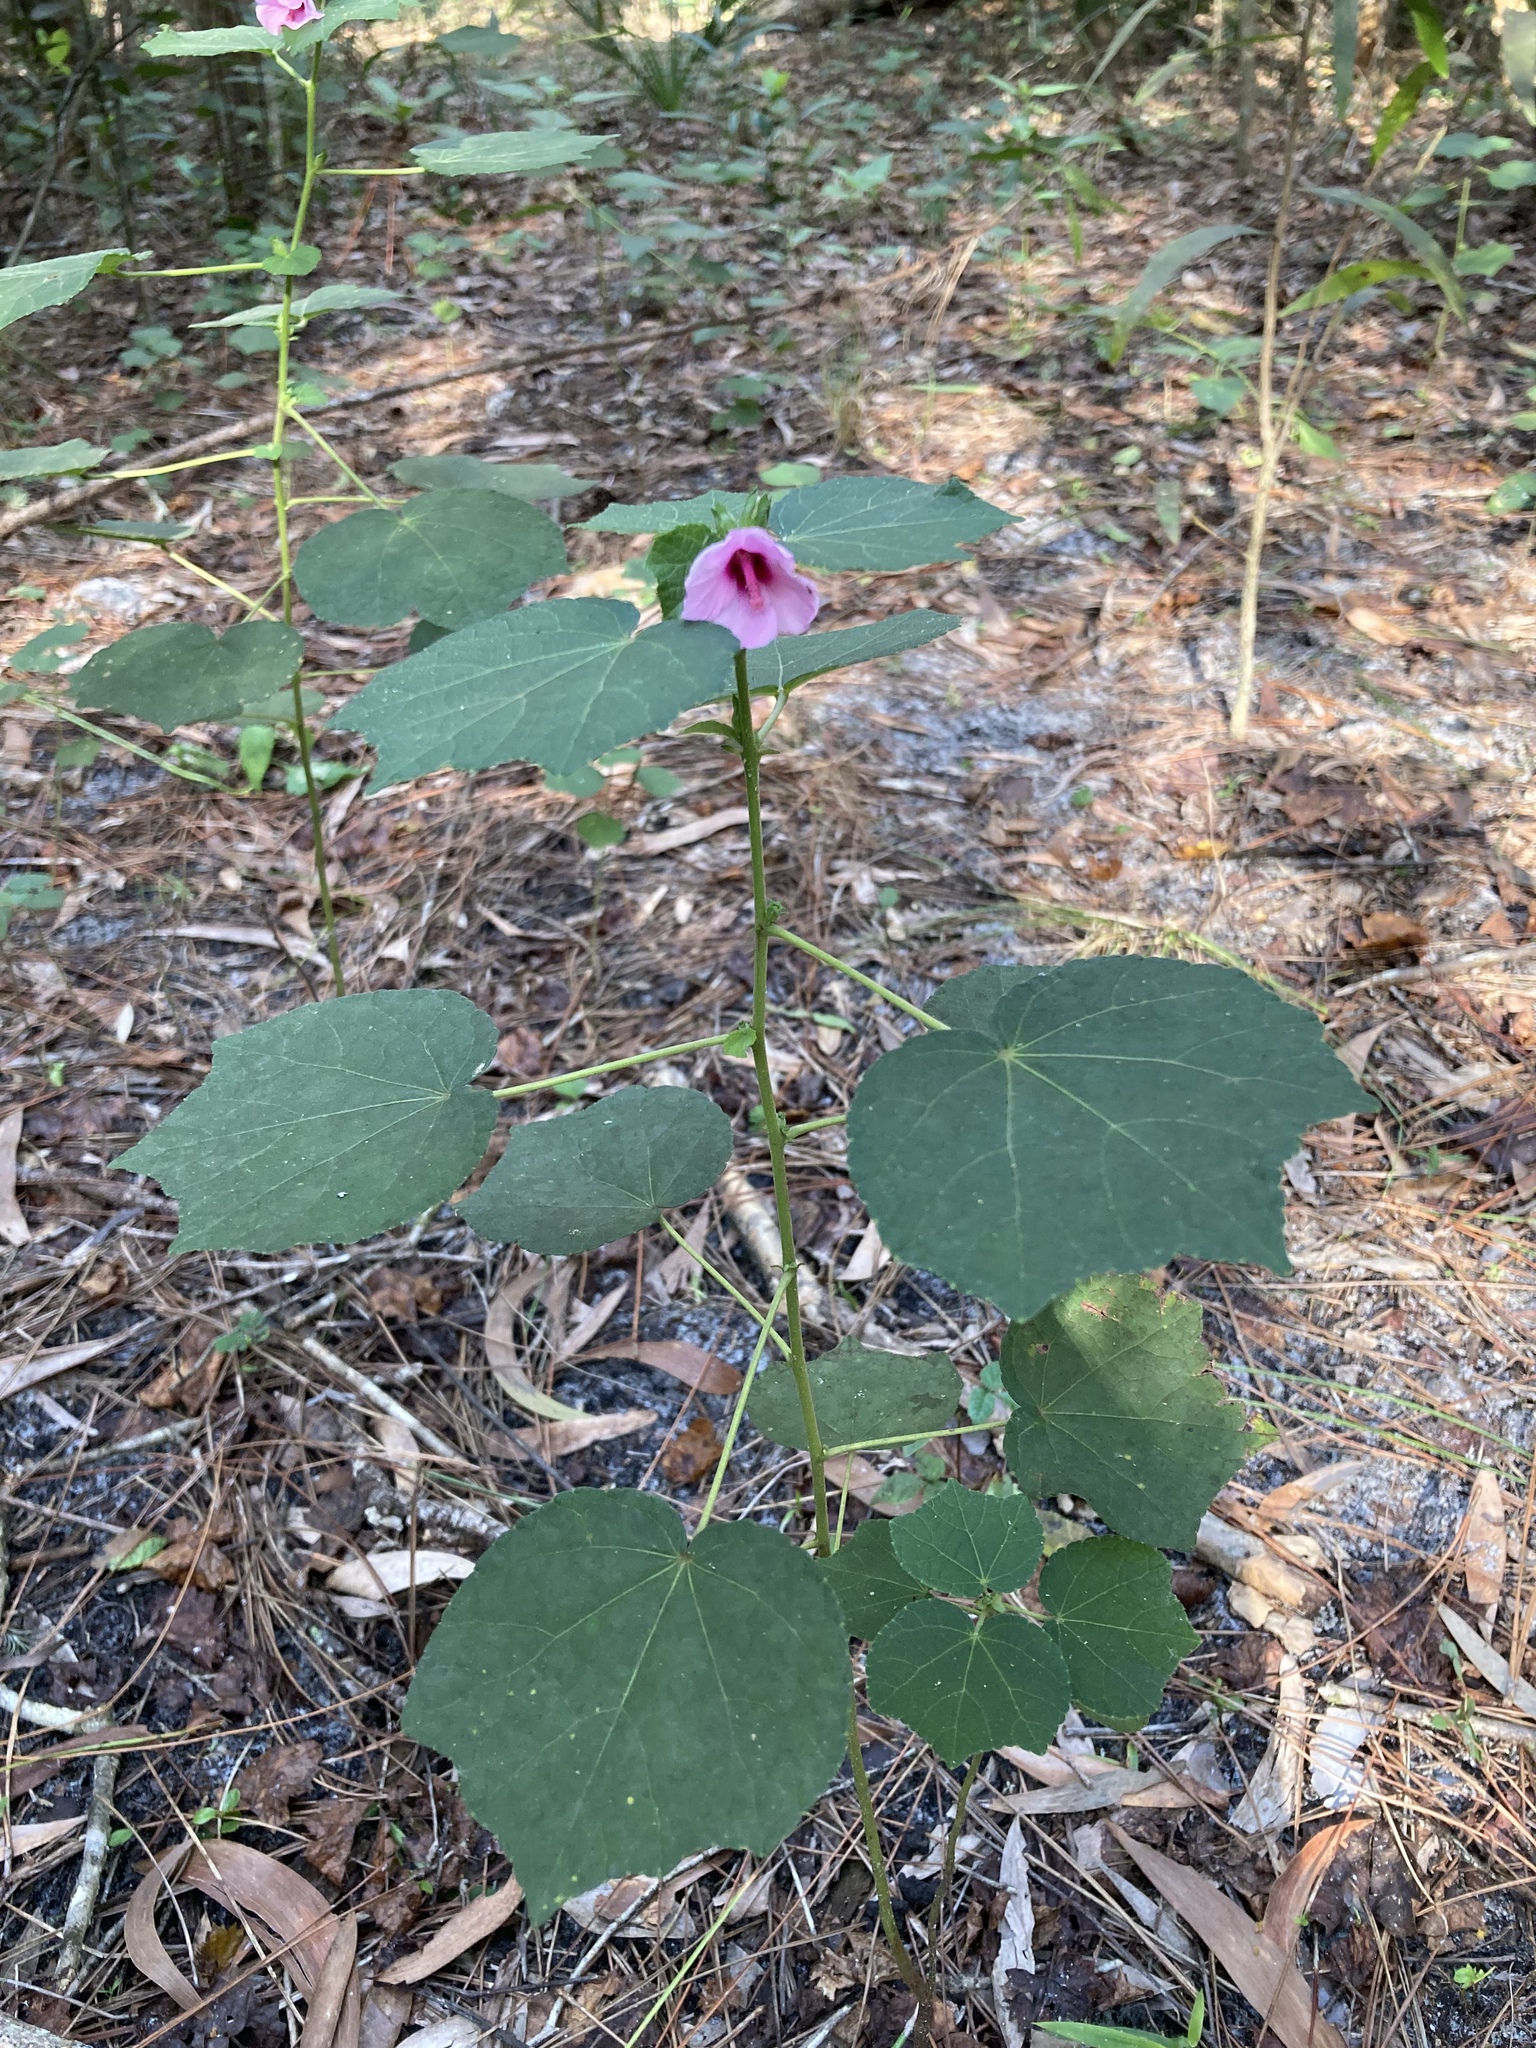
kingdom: Plantae
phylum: Tracheophyta
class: Magnoliopsida
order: Malvales
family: Malvaceae
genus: Urena
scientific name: Urena lobata
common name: Caesarweed
